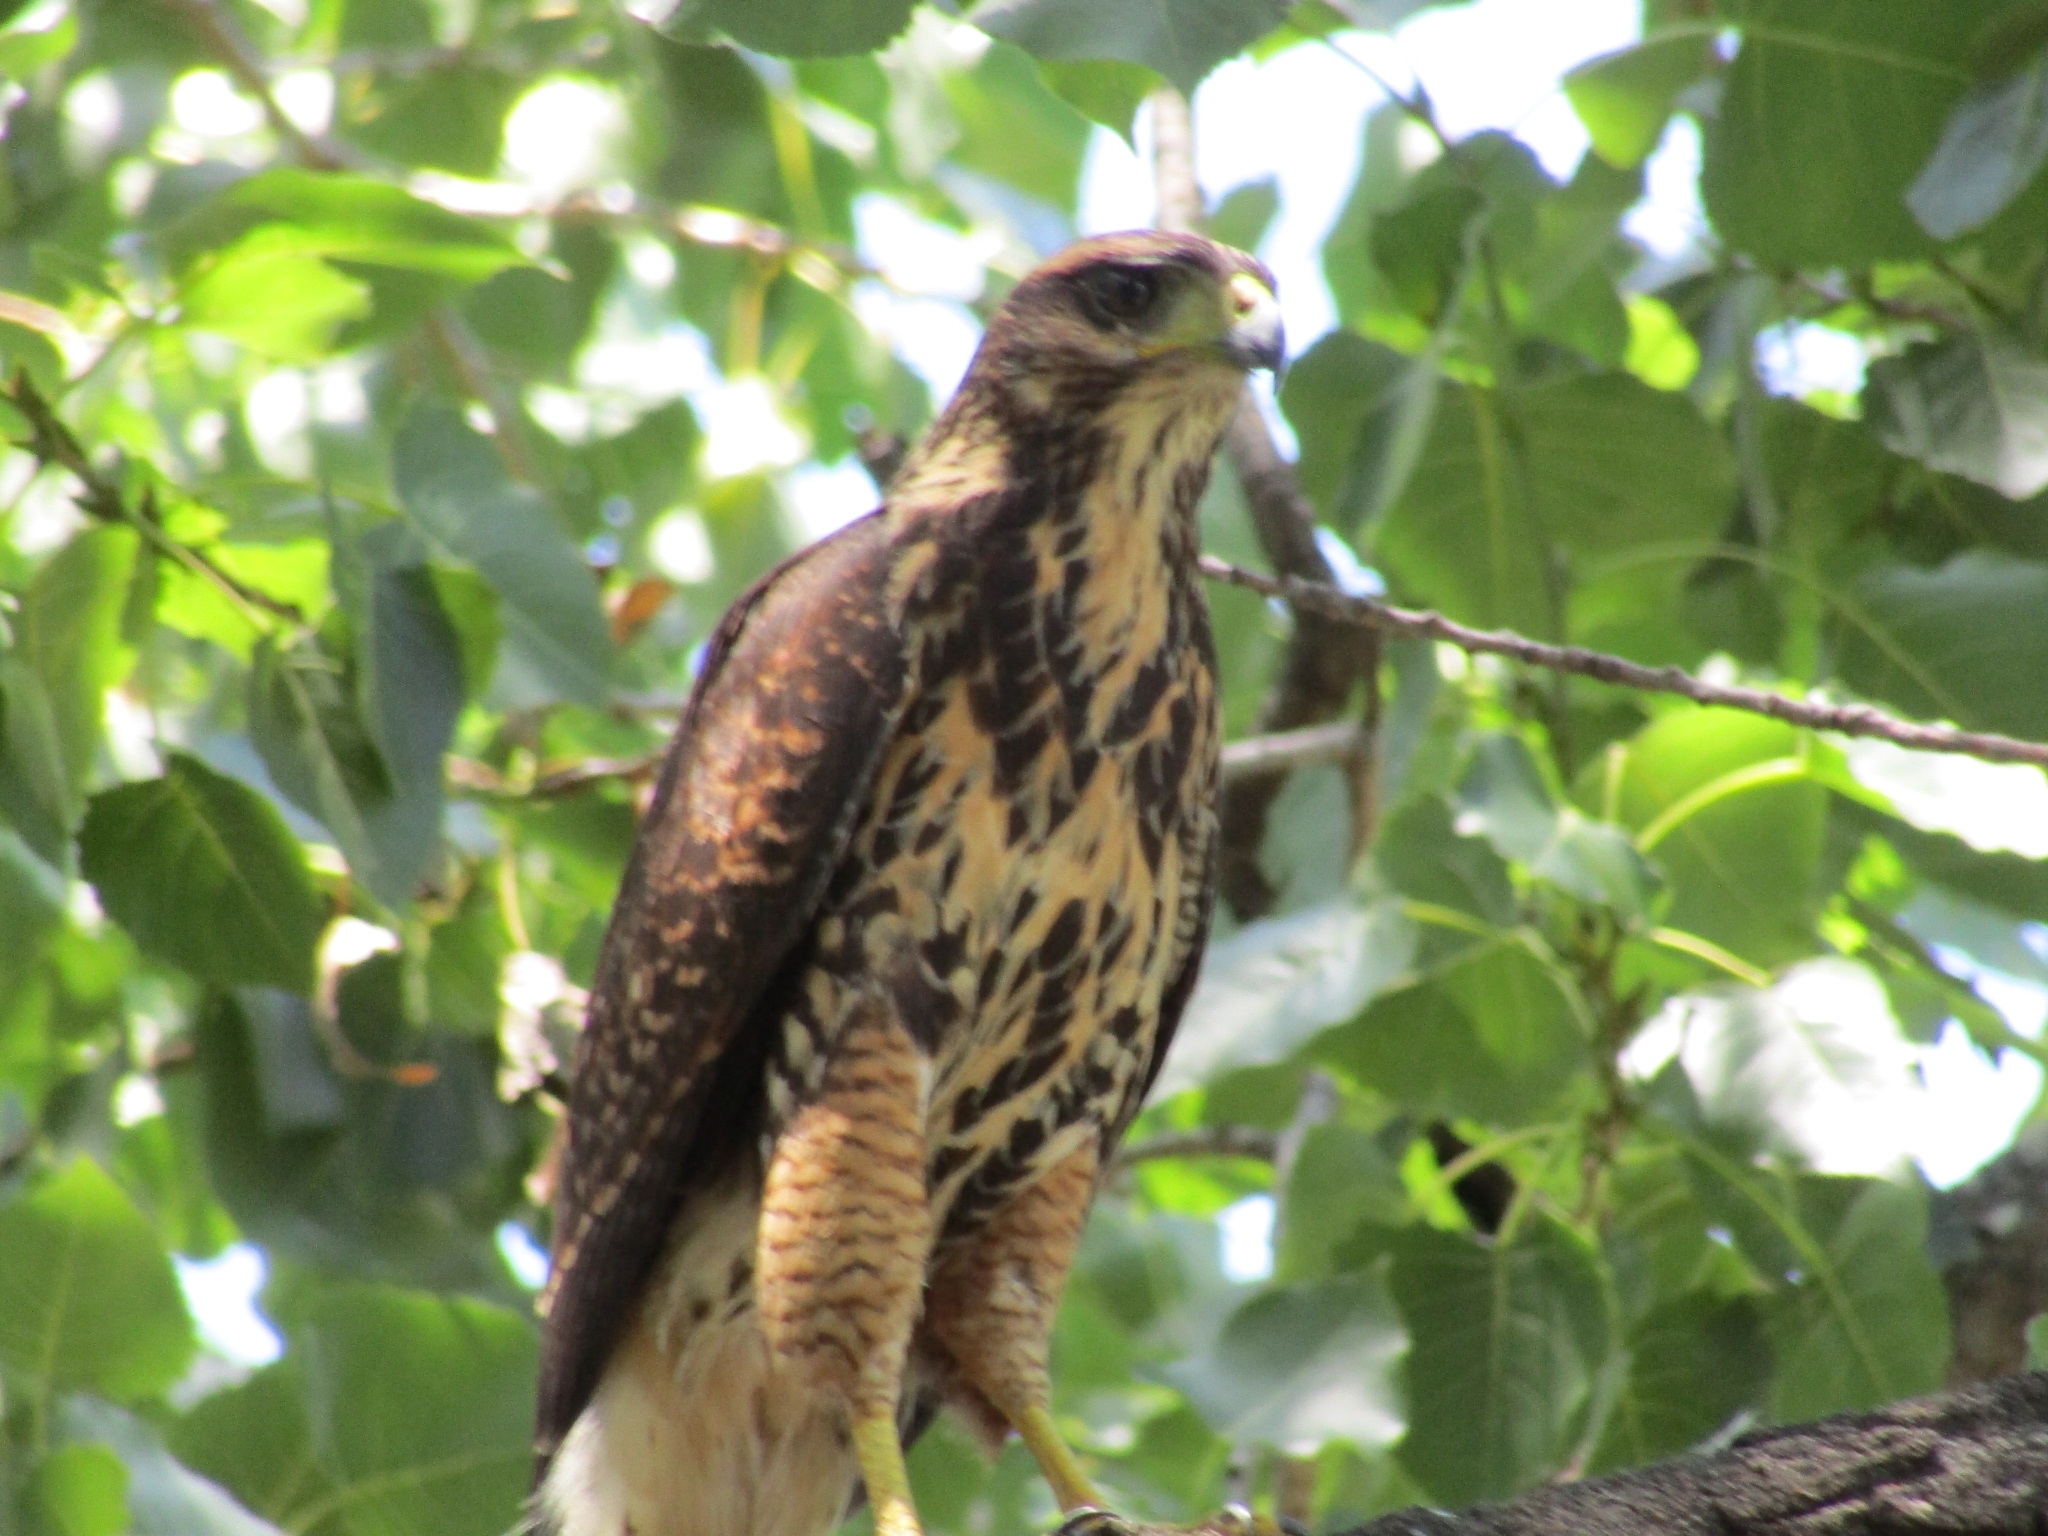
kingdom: Animalia
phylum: Chordata
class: Aves
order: Accipitriformes
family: Accipitridae
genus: Parabuteo
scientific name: Parabuteo unicinctus
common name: Harris's hawk
